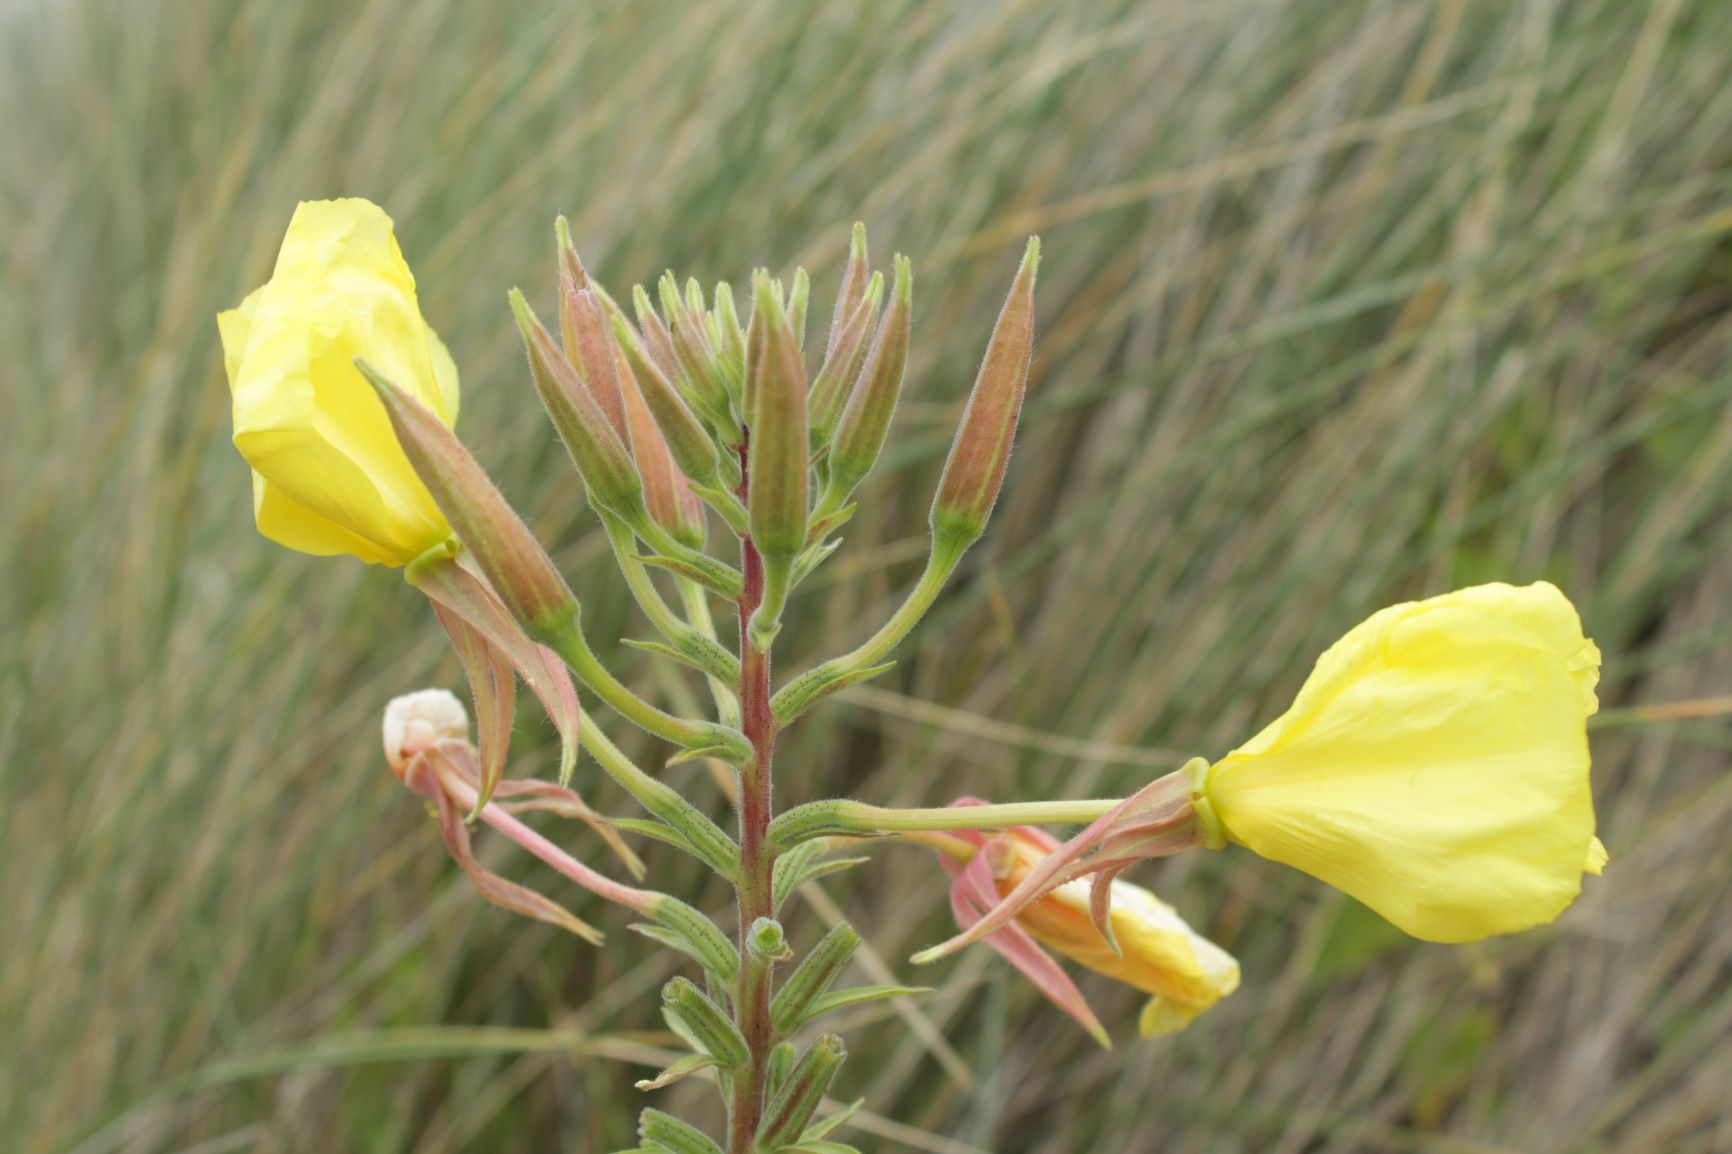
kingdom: Plantae
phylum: Tracheophyta
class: Magnoliopsida
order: Myrtales
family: Onagraceae
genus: Oenothera
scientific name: Oenothera glazioviana
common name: Large-flowered evening-primrose
